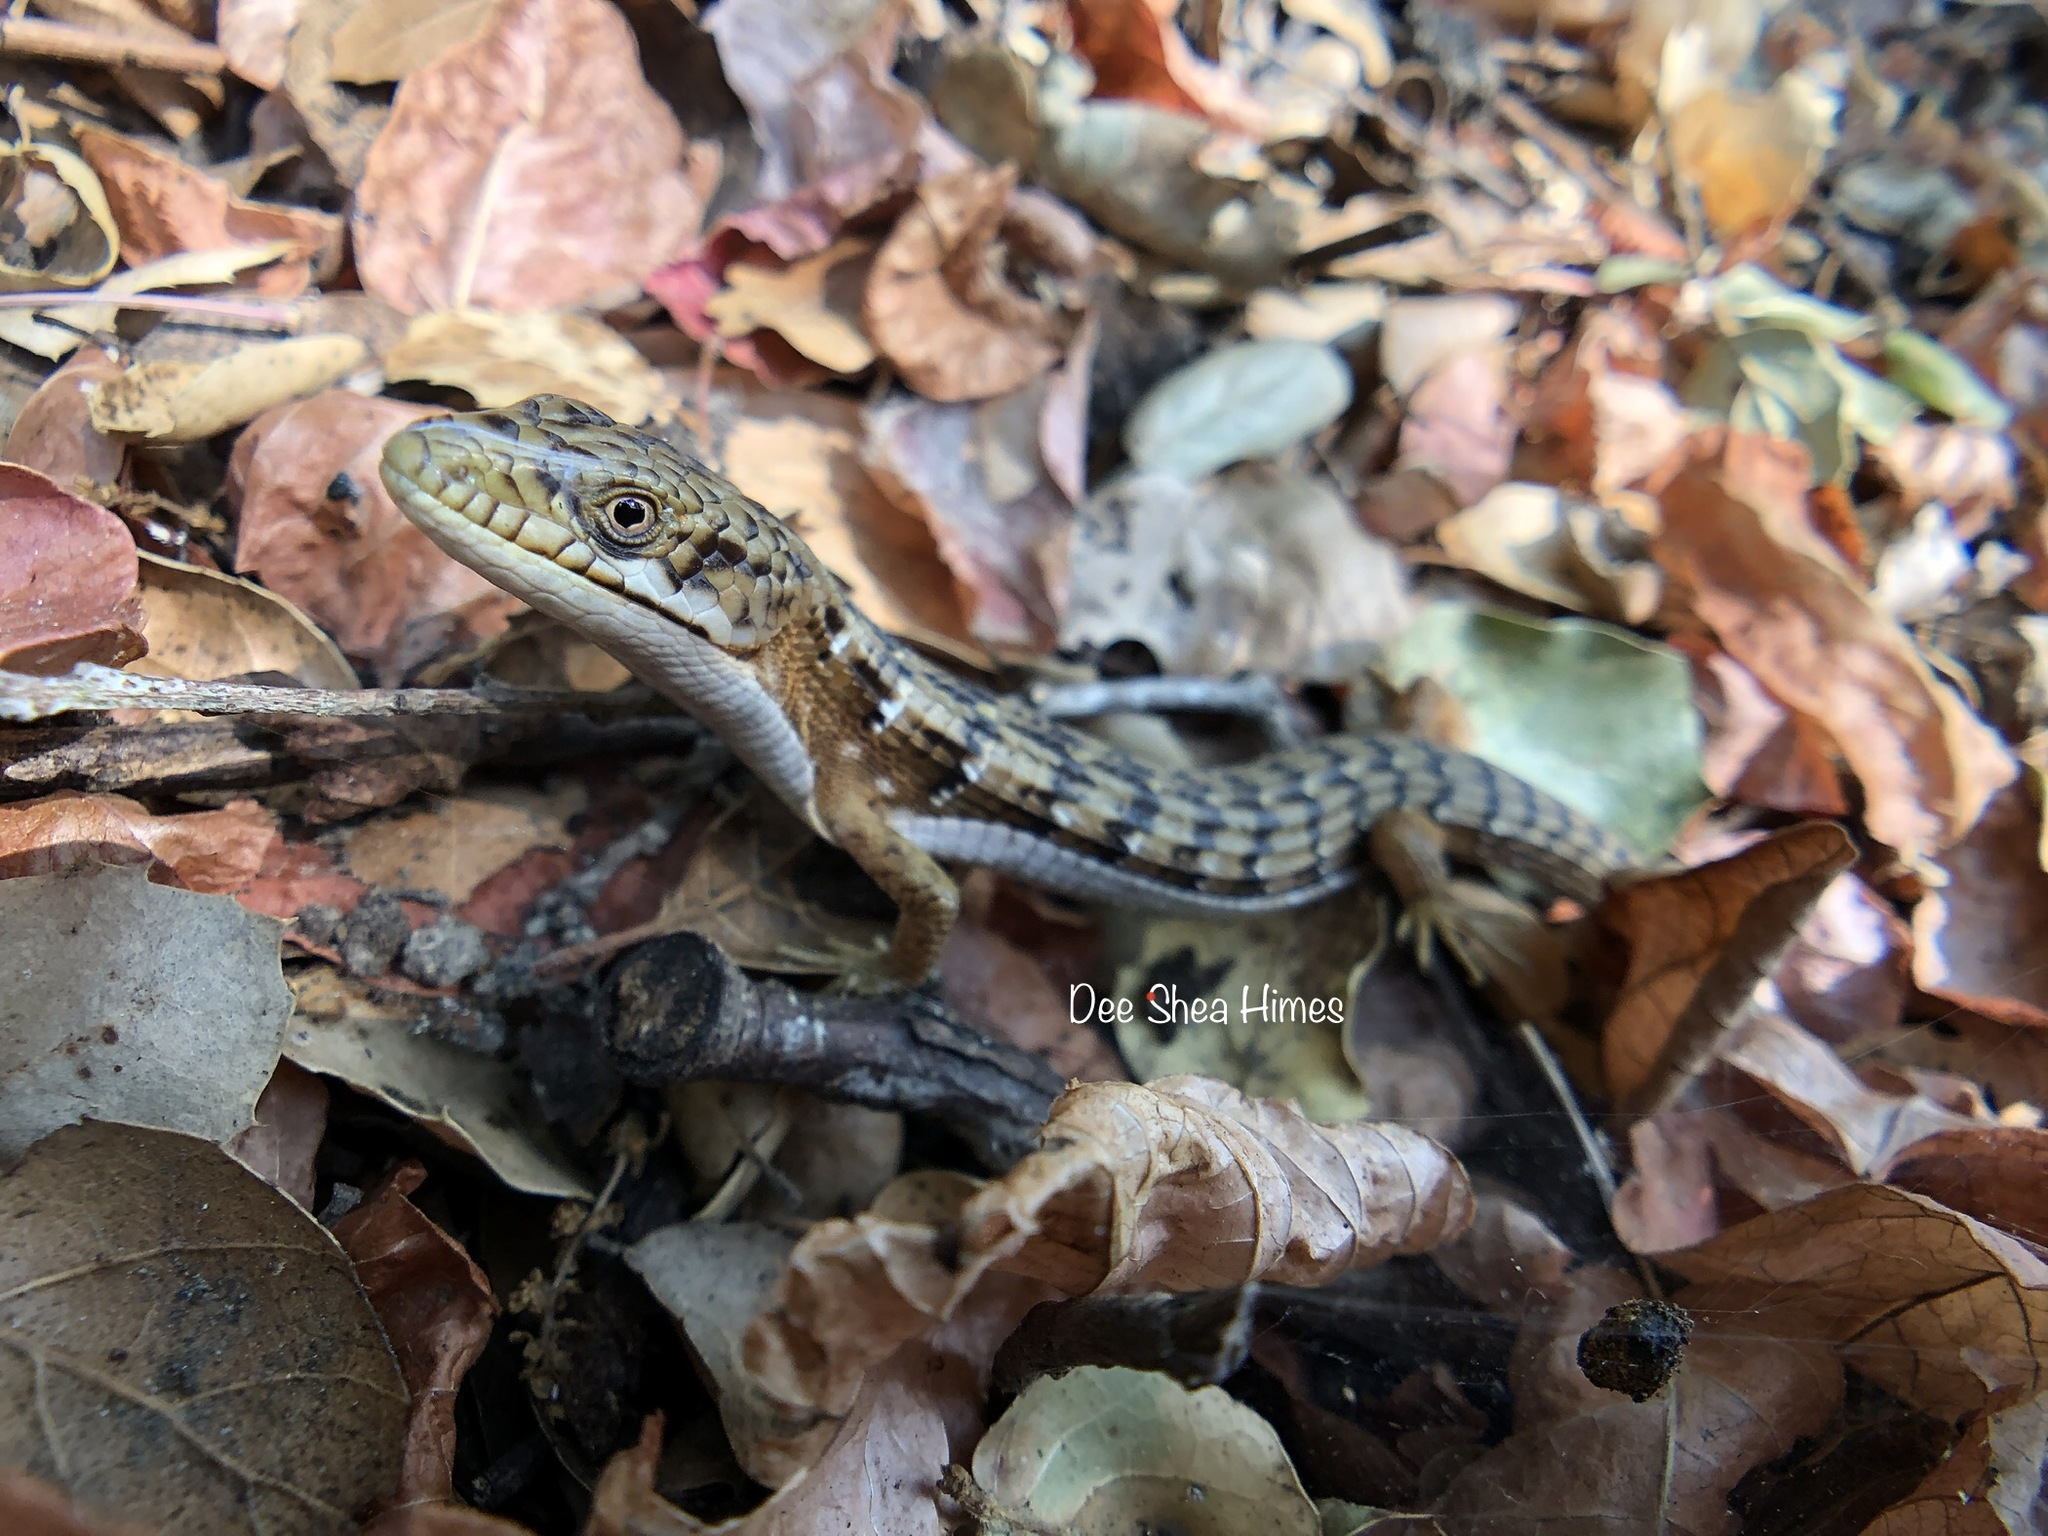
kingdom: Animalia
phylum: Chordata
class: Squamata
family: Anguidae
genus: Elgaria
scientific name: Elgaria multicarinata
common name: Southern alligator lizard
